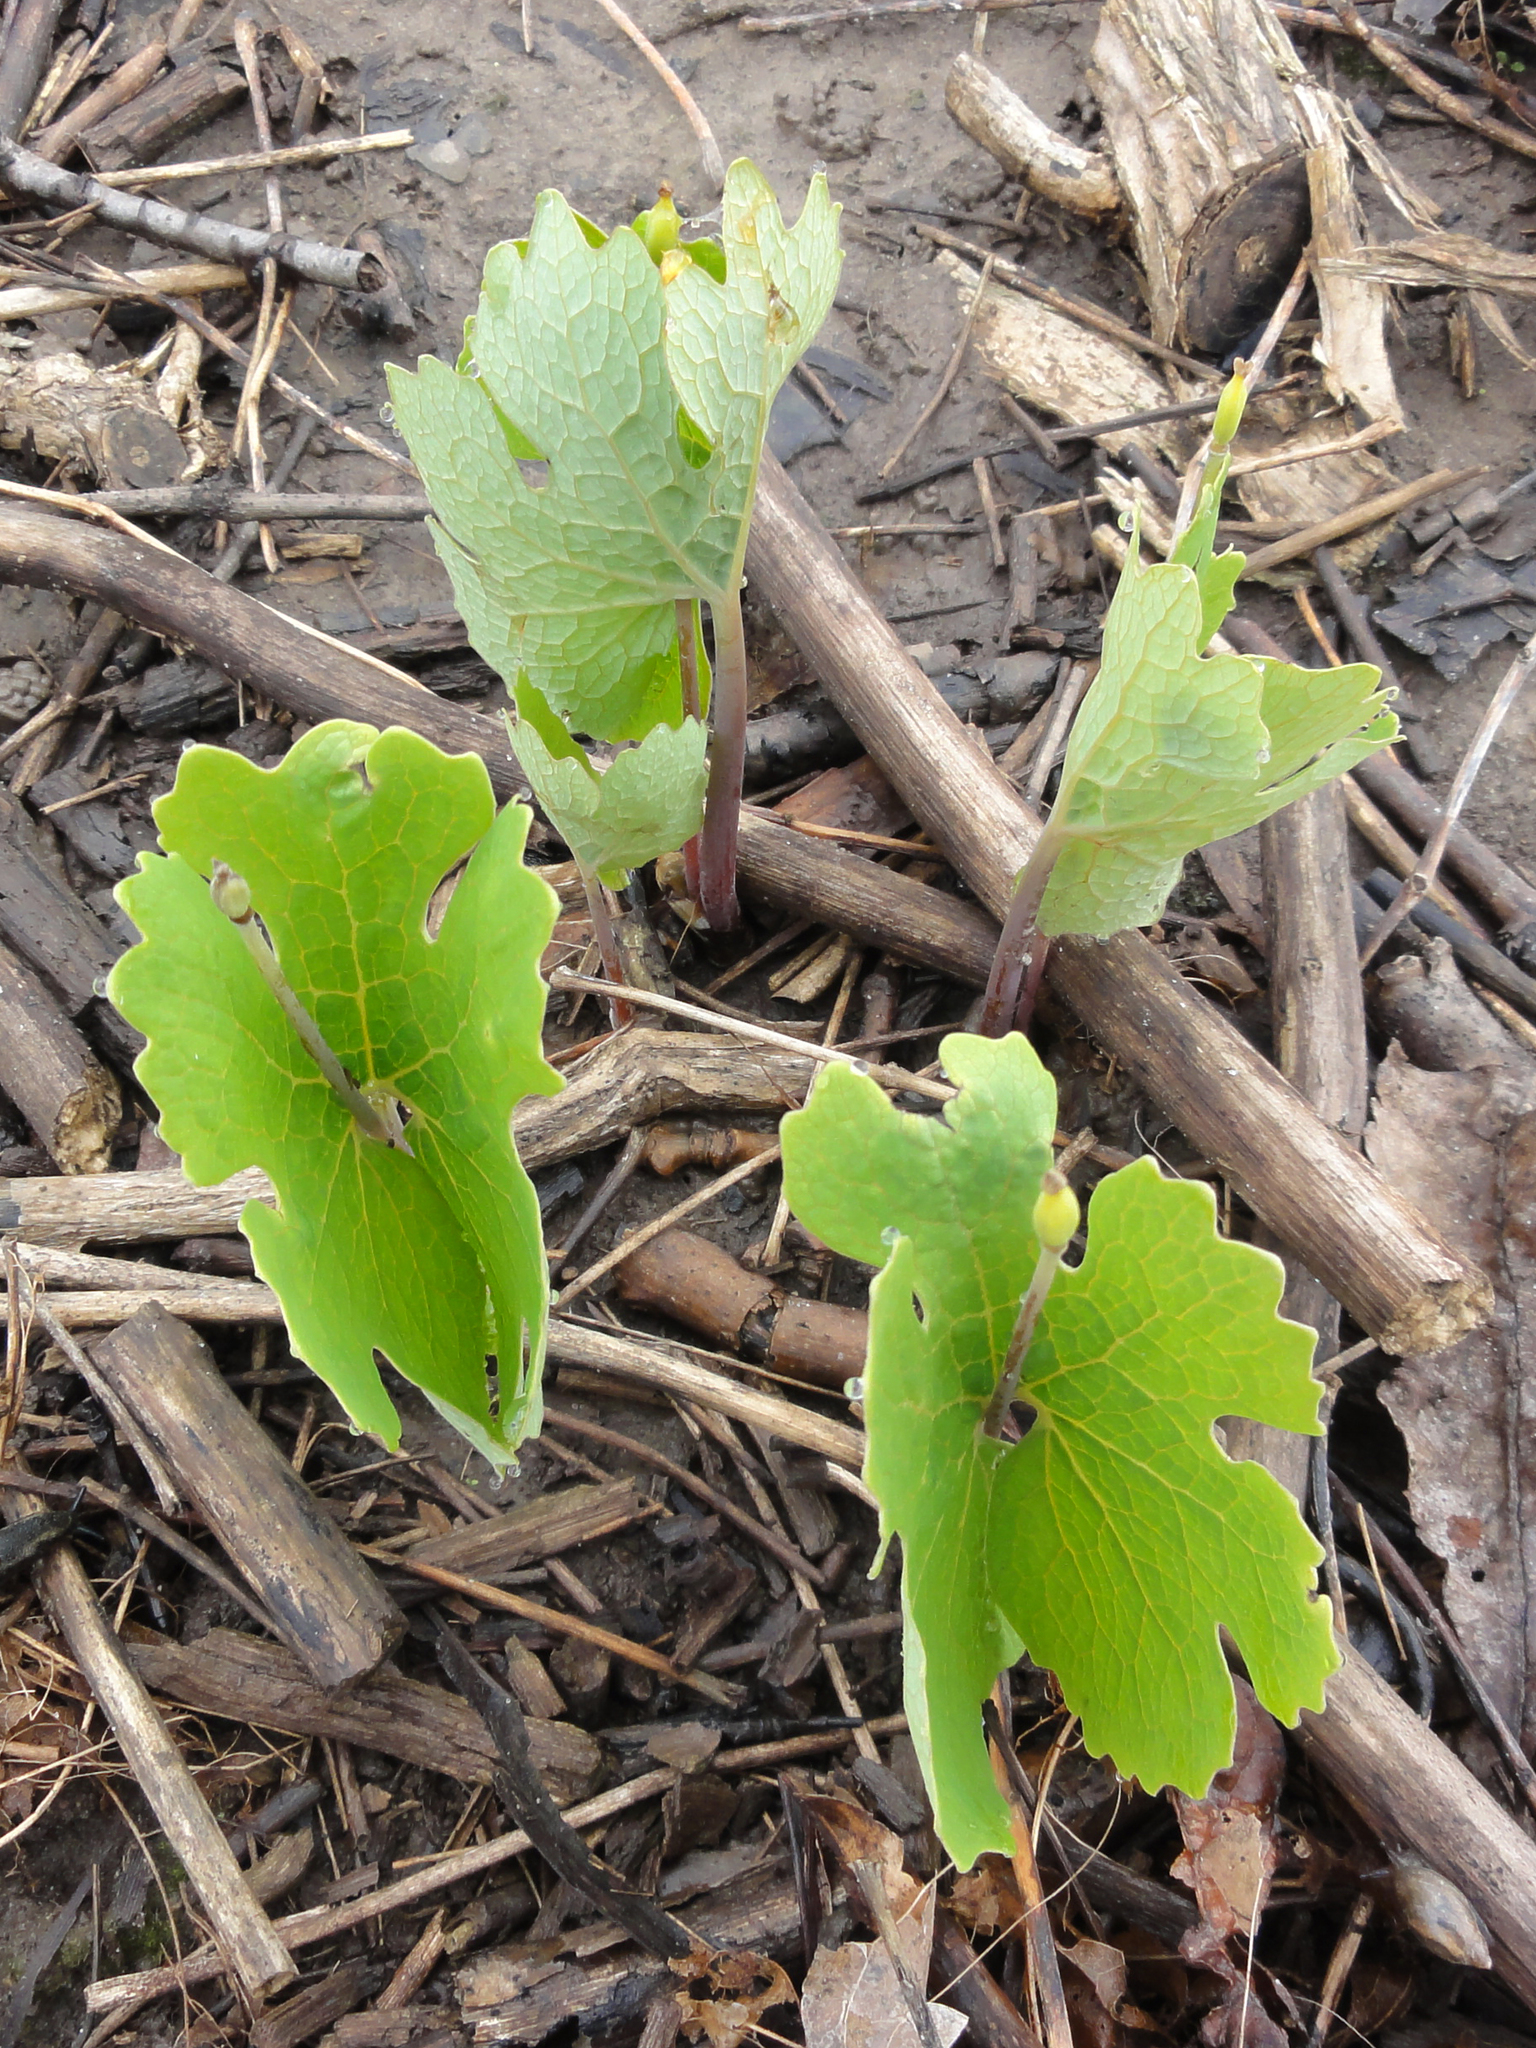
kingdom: Plantae
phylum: Tracheophyta
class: Magnoliopsida
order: Ranunculales
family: Papaveraceae
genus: Sanguinaria
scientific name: Sanguinaria canadensis
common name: Bloodroot
